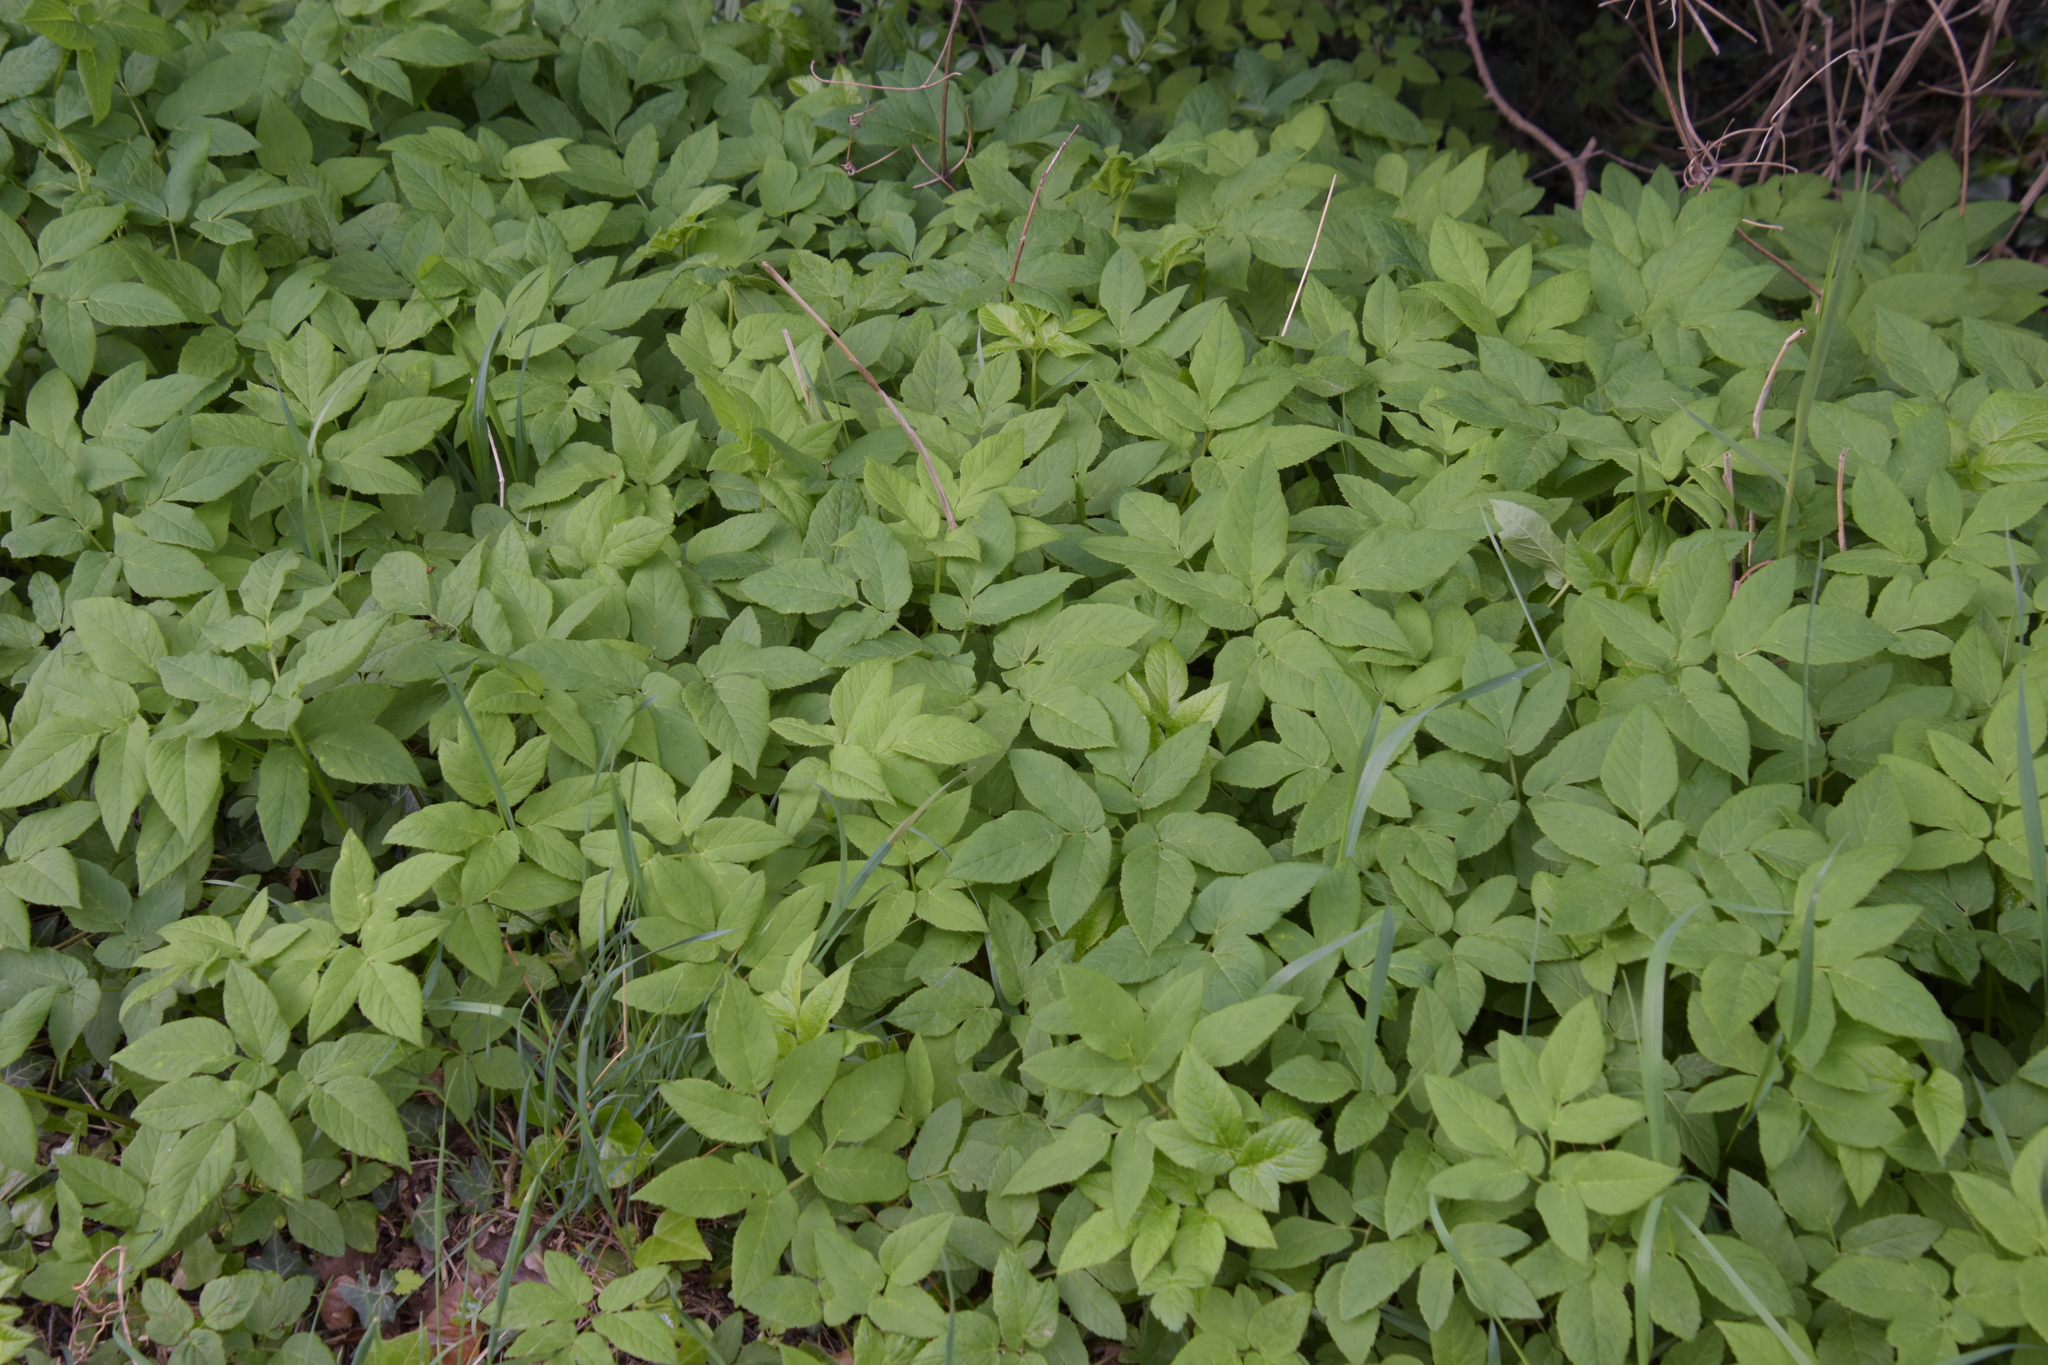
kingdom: Plantae
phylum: Tracheophyta
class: Magnoliopsida
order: Apiales
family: Apiaceae
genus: Aegopodium
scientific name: Aegopodium podagraria
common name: Ground-elder
